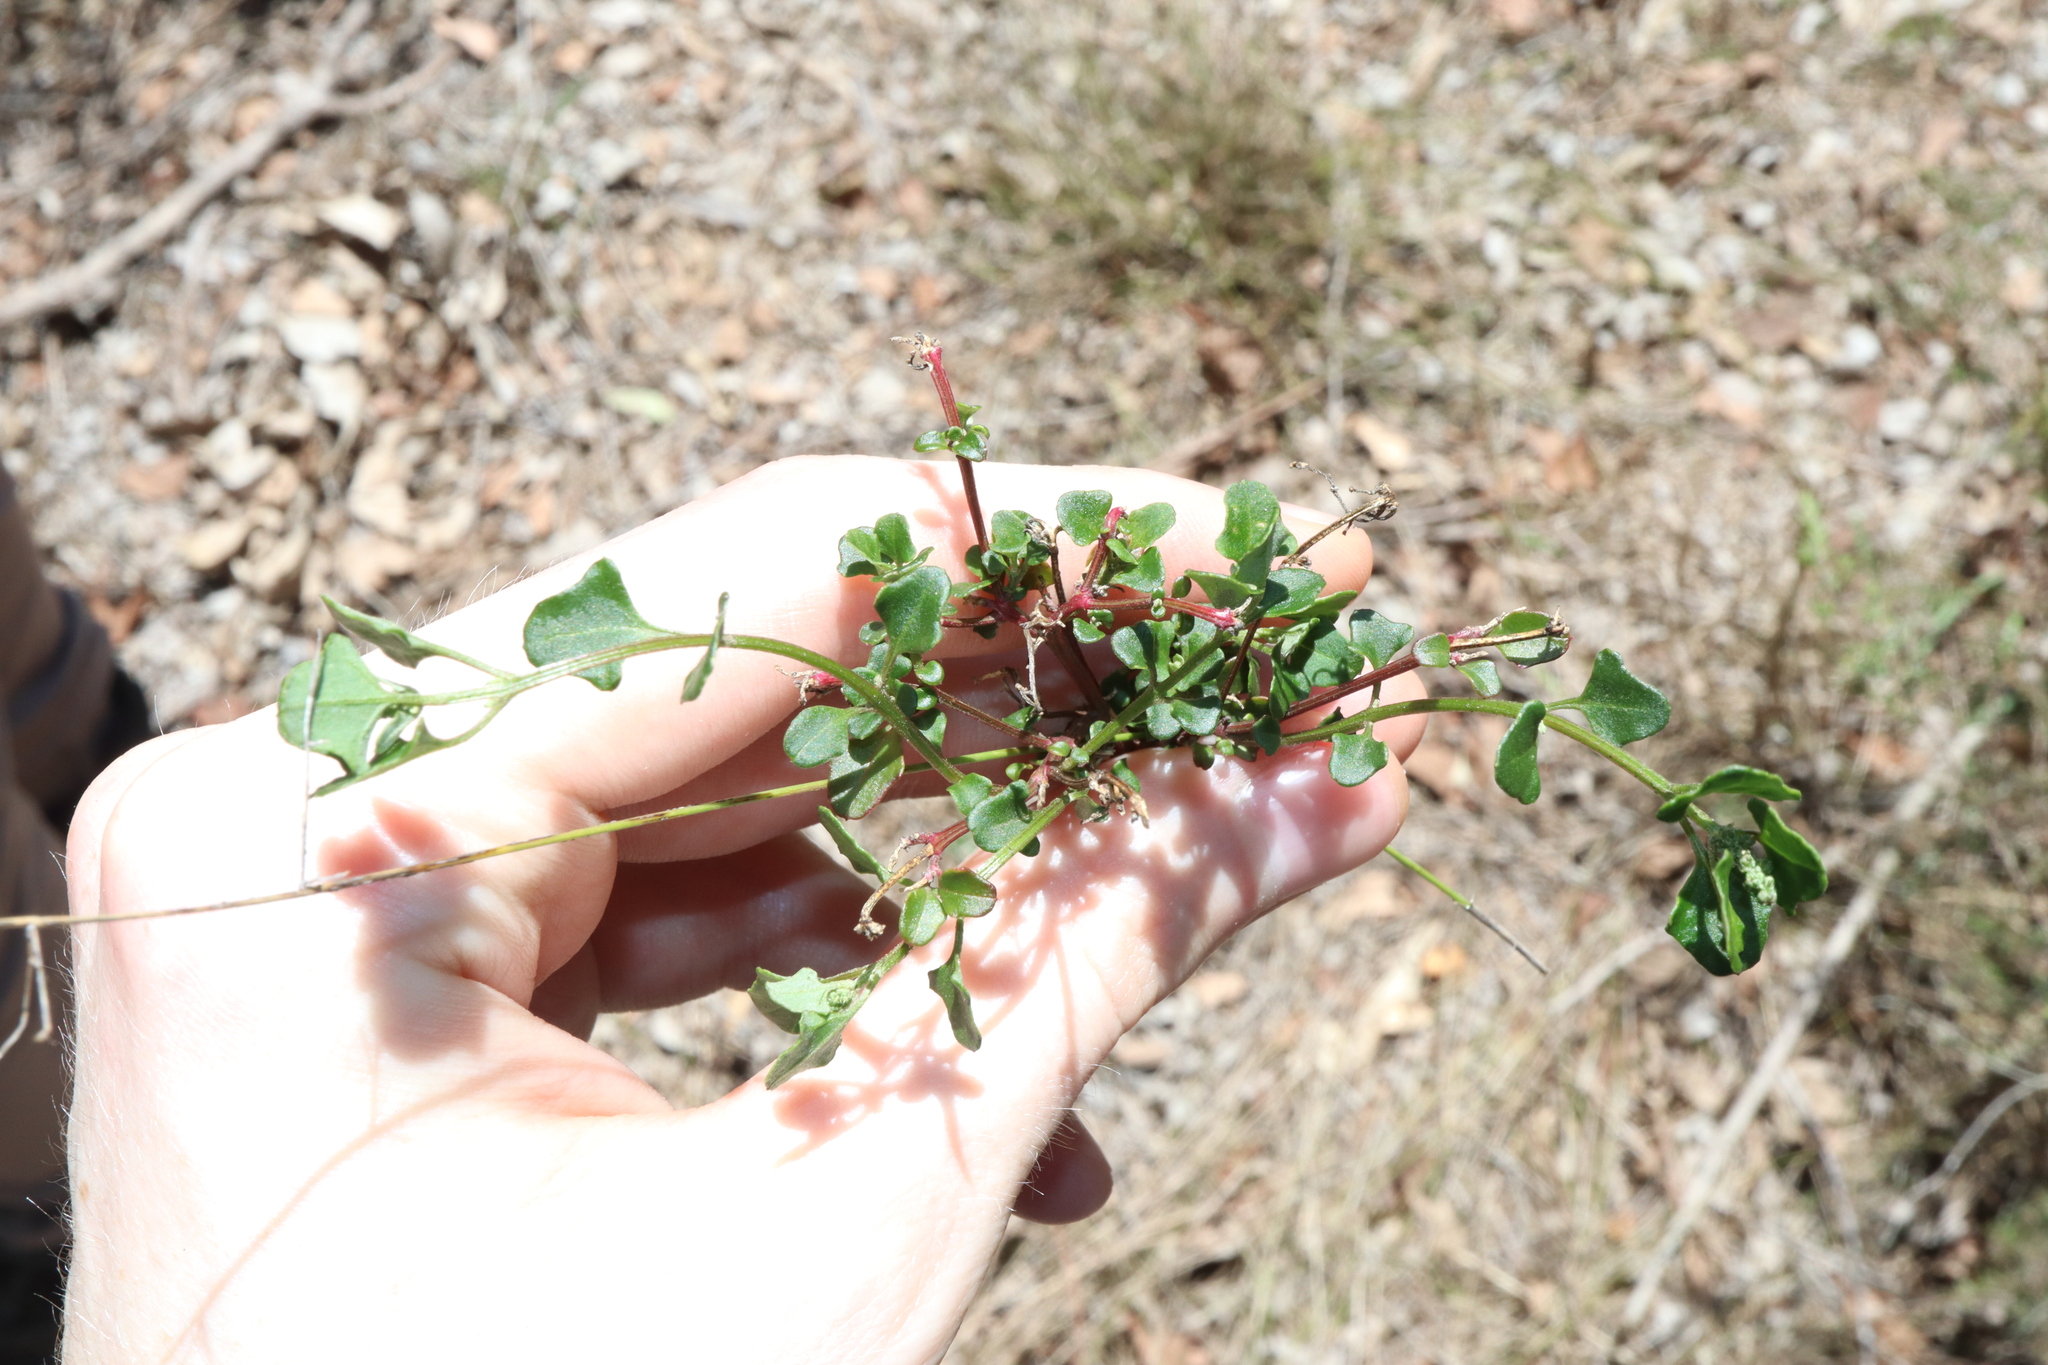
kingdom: Plantae
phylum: Tracheophyta
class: Magnoliopsida
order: Caryophyllales
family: Amaranthaceae
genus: Chenopodium
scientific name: Chenopodium robertianum
